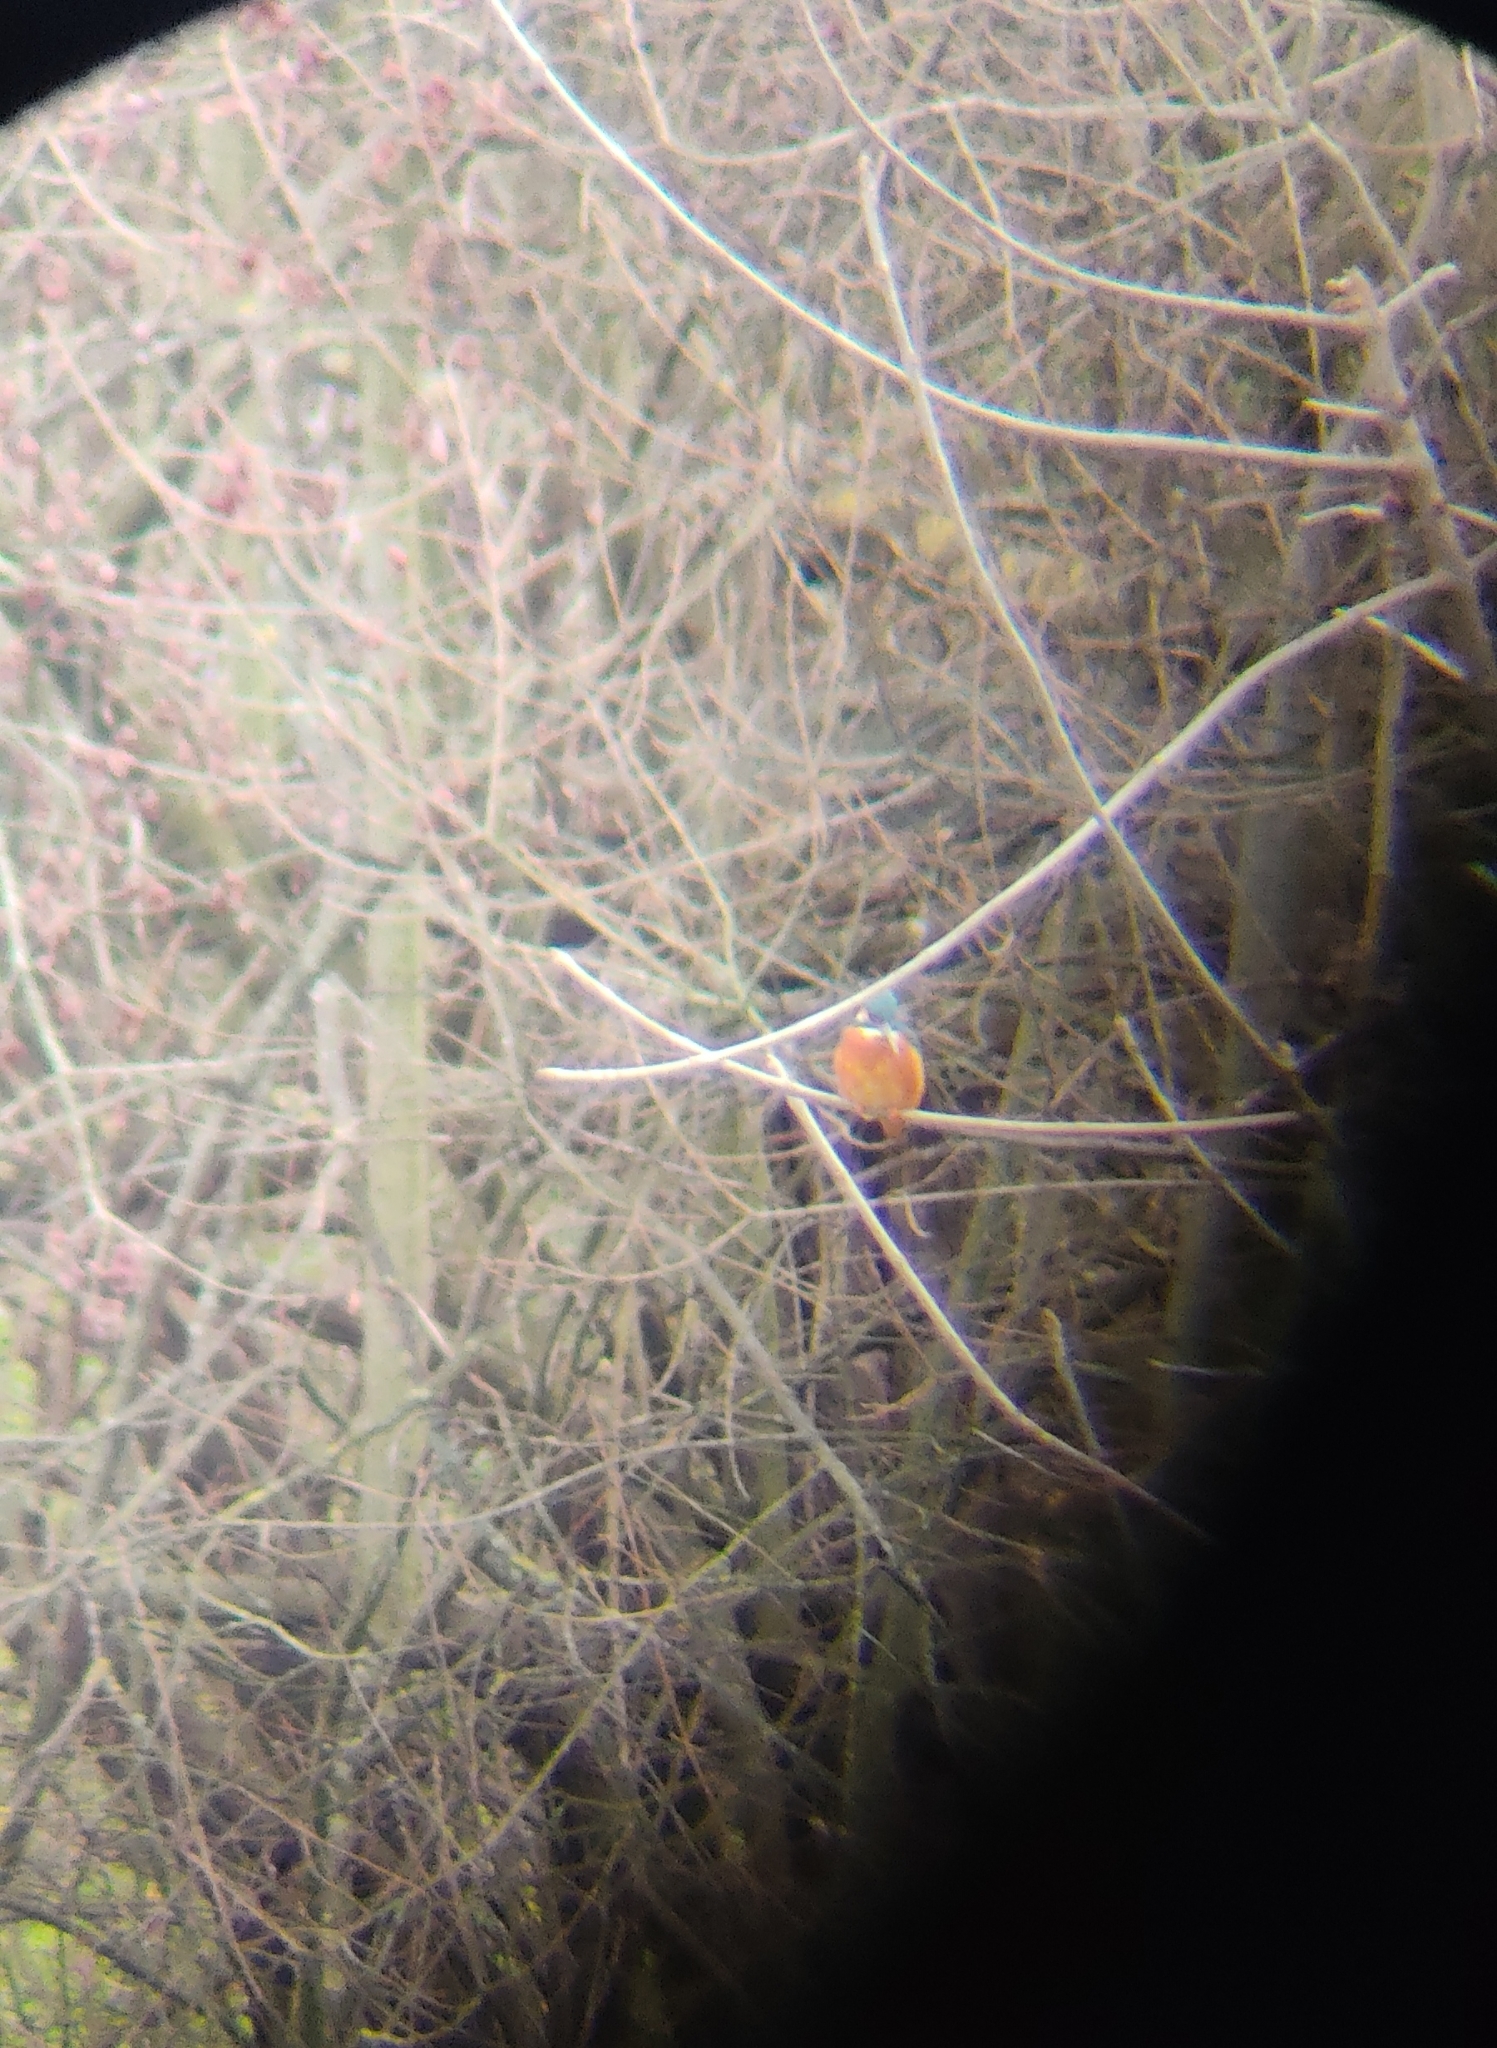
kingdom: Animalia
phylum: Chordata
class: Aves
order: Coraciiformes
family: Alcedinidae
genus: Alcedo
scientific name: Alcedo atthis
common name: Common kingfisher
